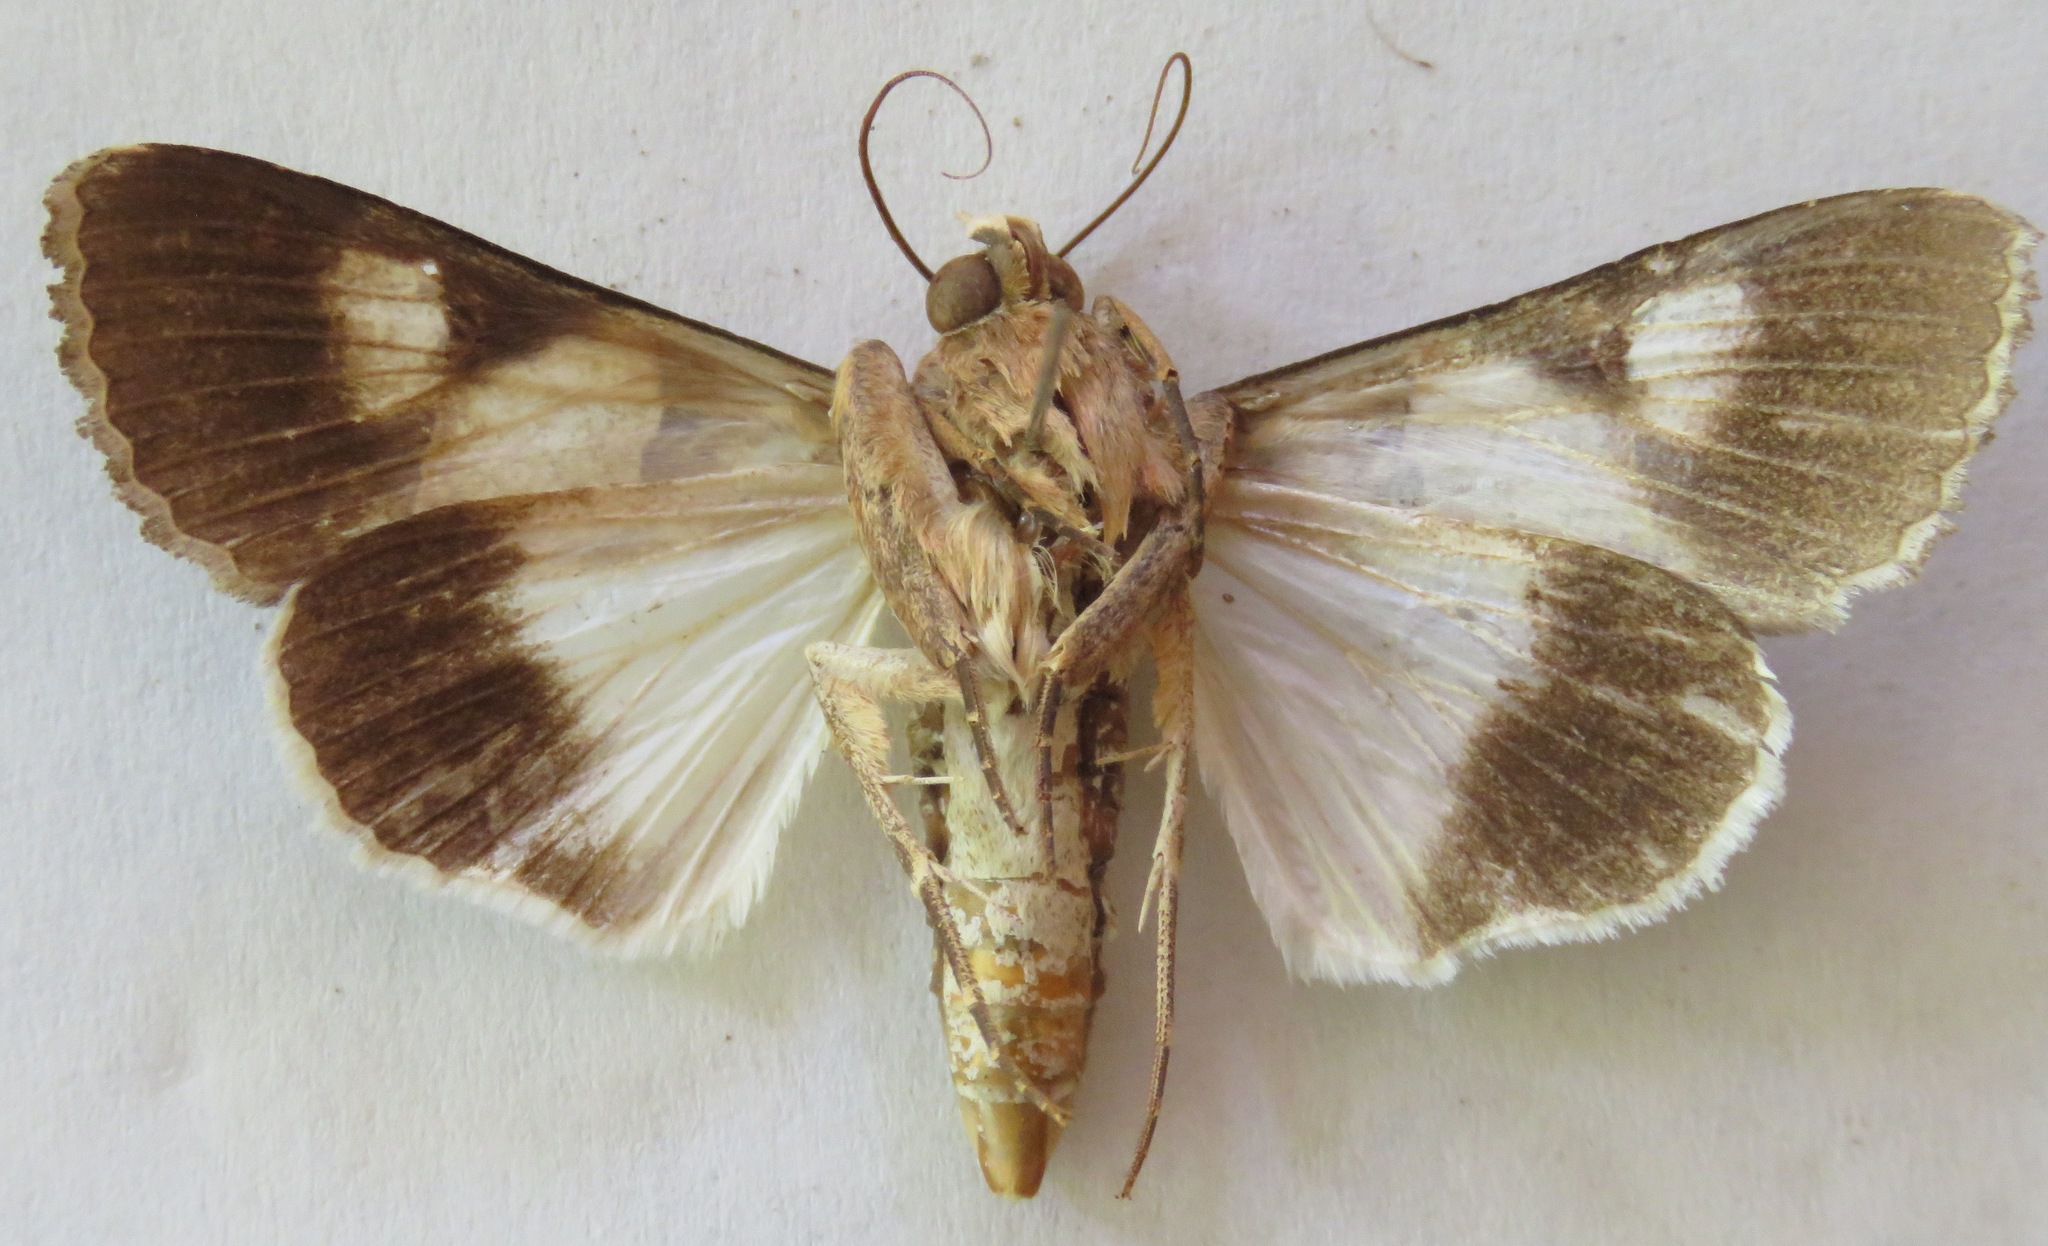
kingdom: Animalia
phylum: Arthropoda
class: Insecta
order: Lepidoptera
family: Erebidae
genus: Melipotis
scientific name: Melipotis agrotoides
